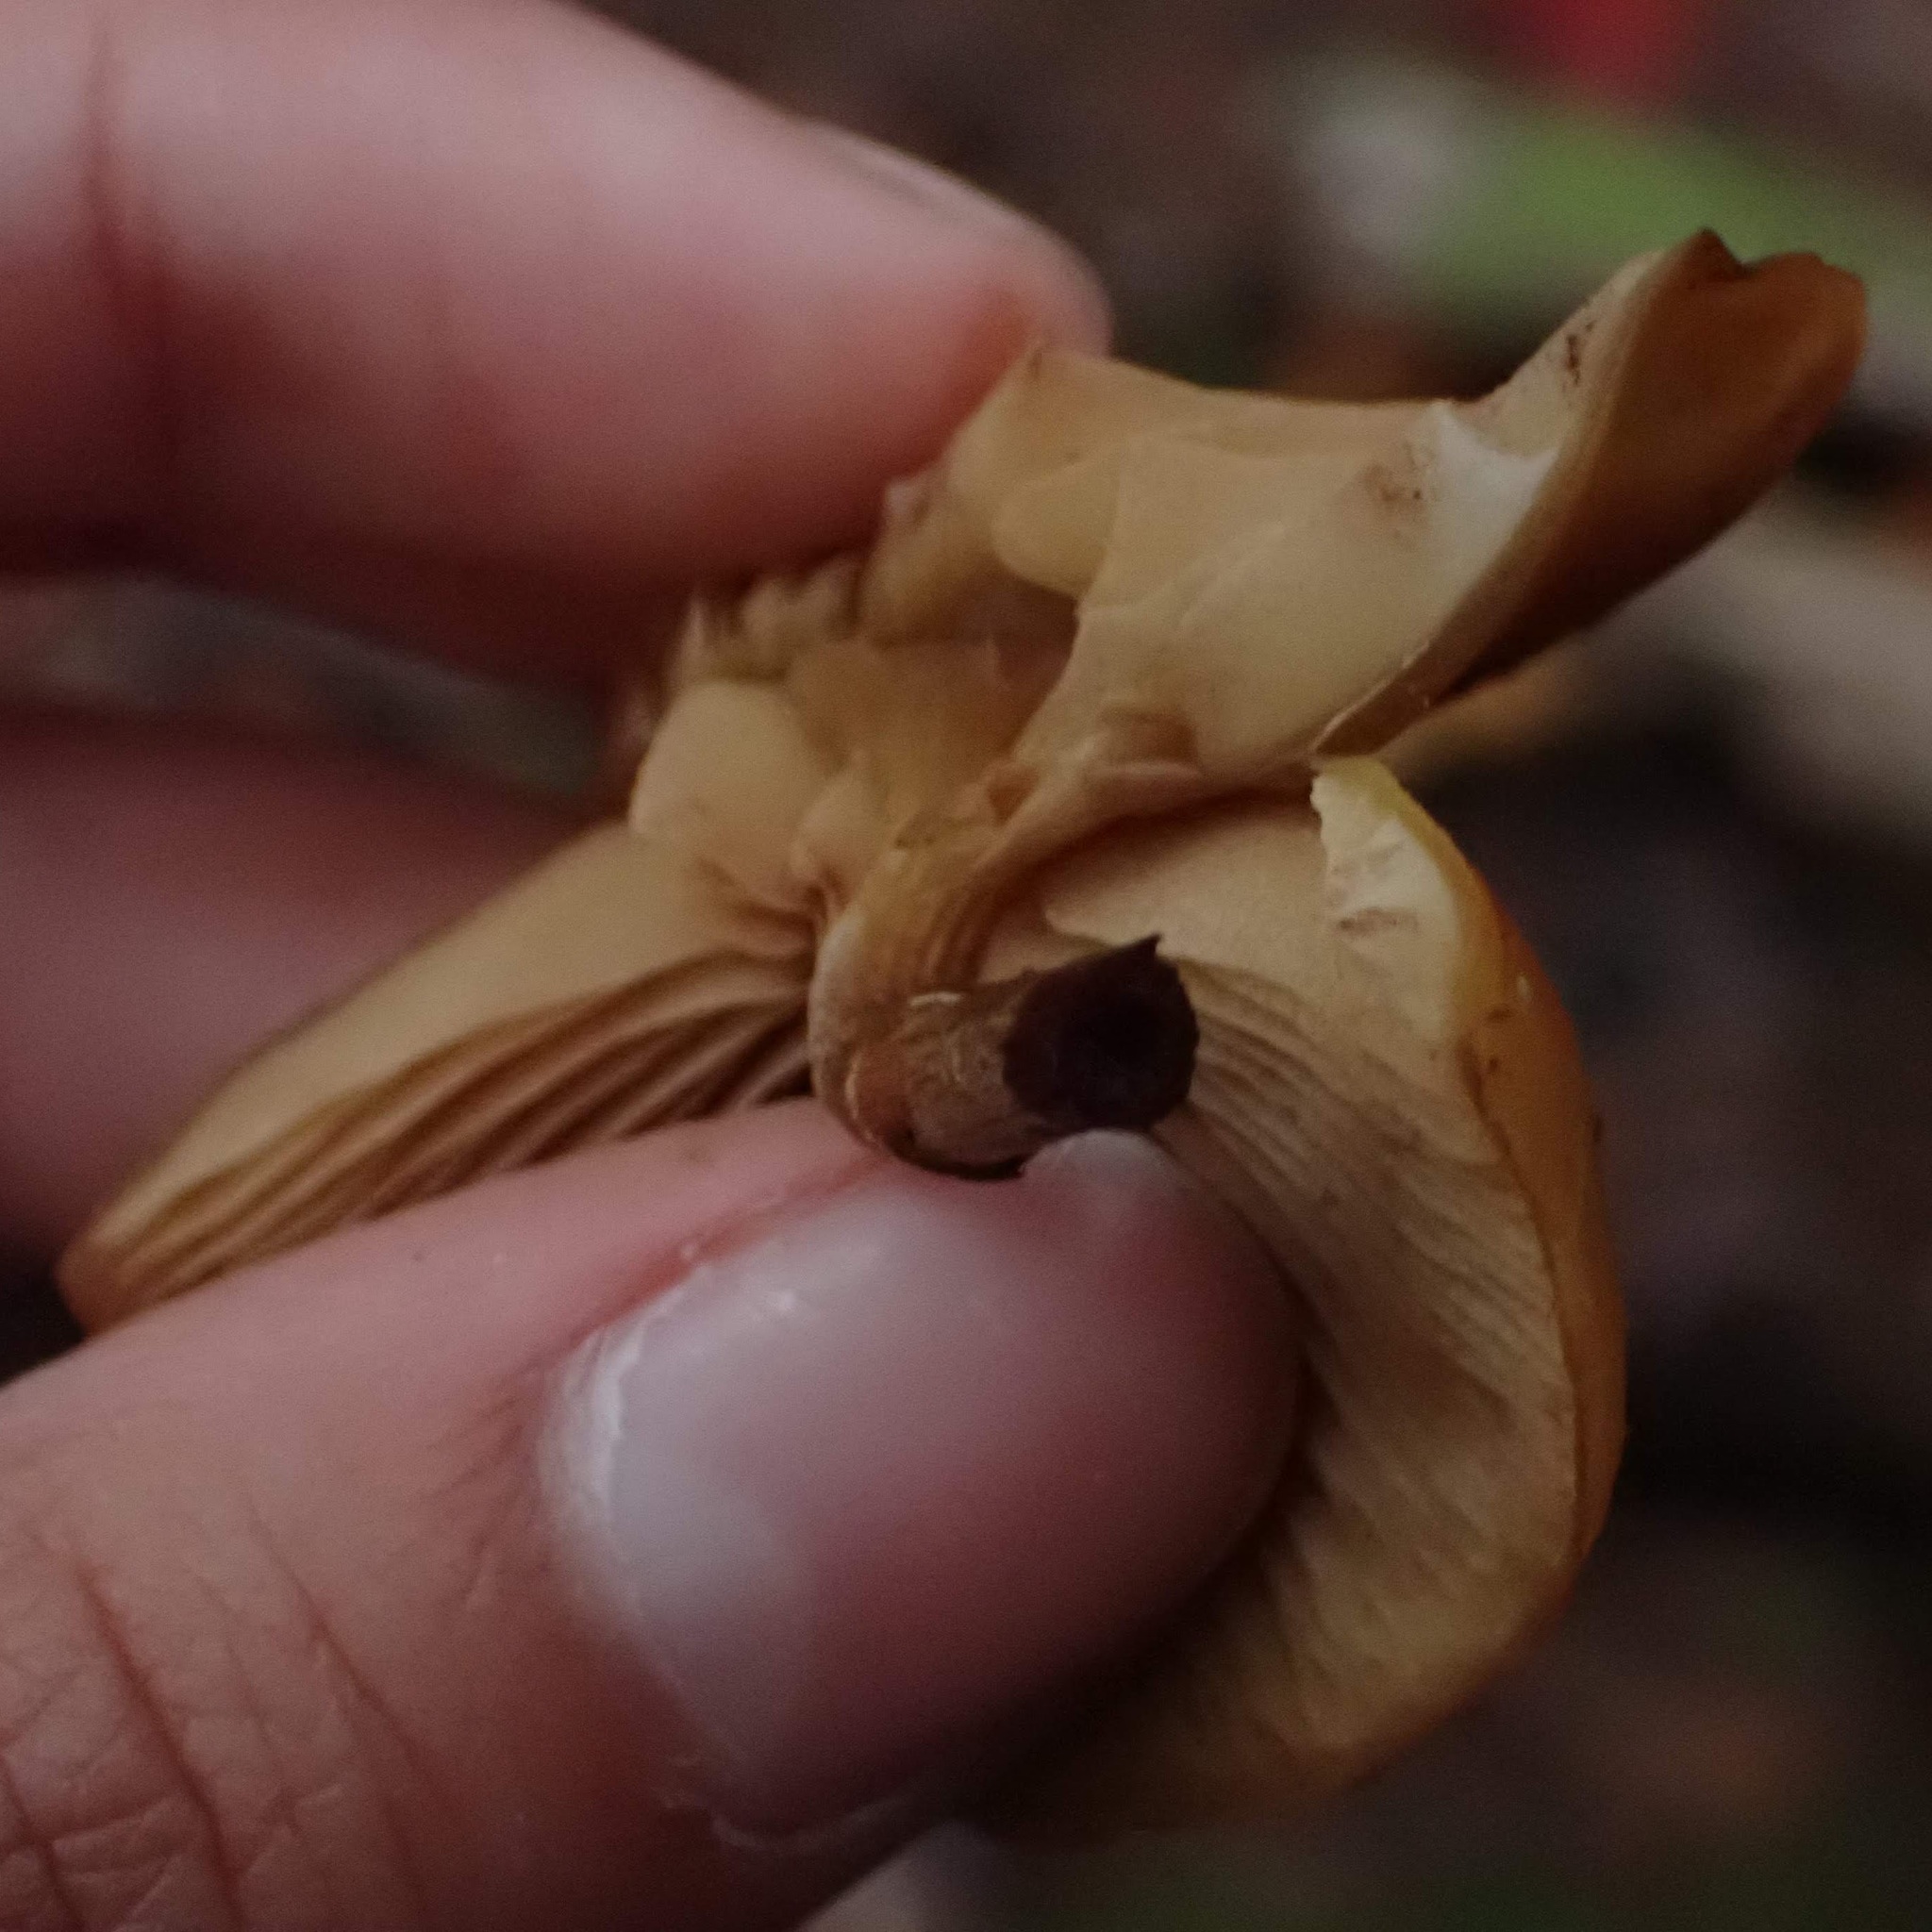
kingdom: Fungi
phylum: Basidiomycota
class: Agaricomycetes
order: Agaricales
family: Hymenogastraceae
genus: Galerina
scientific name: Galerina marginata
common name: Funeral bell
